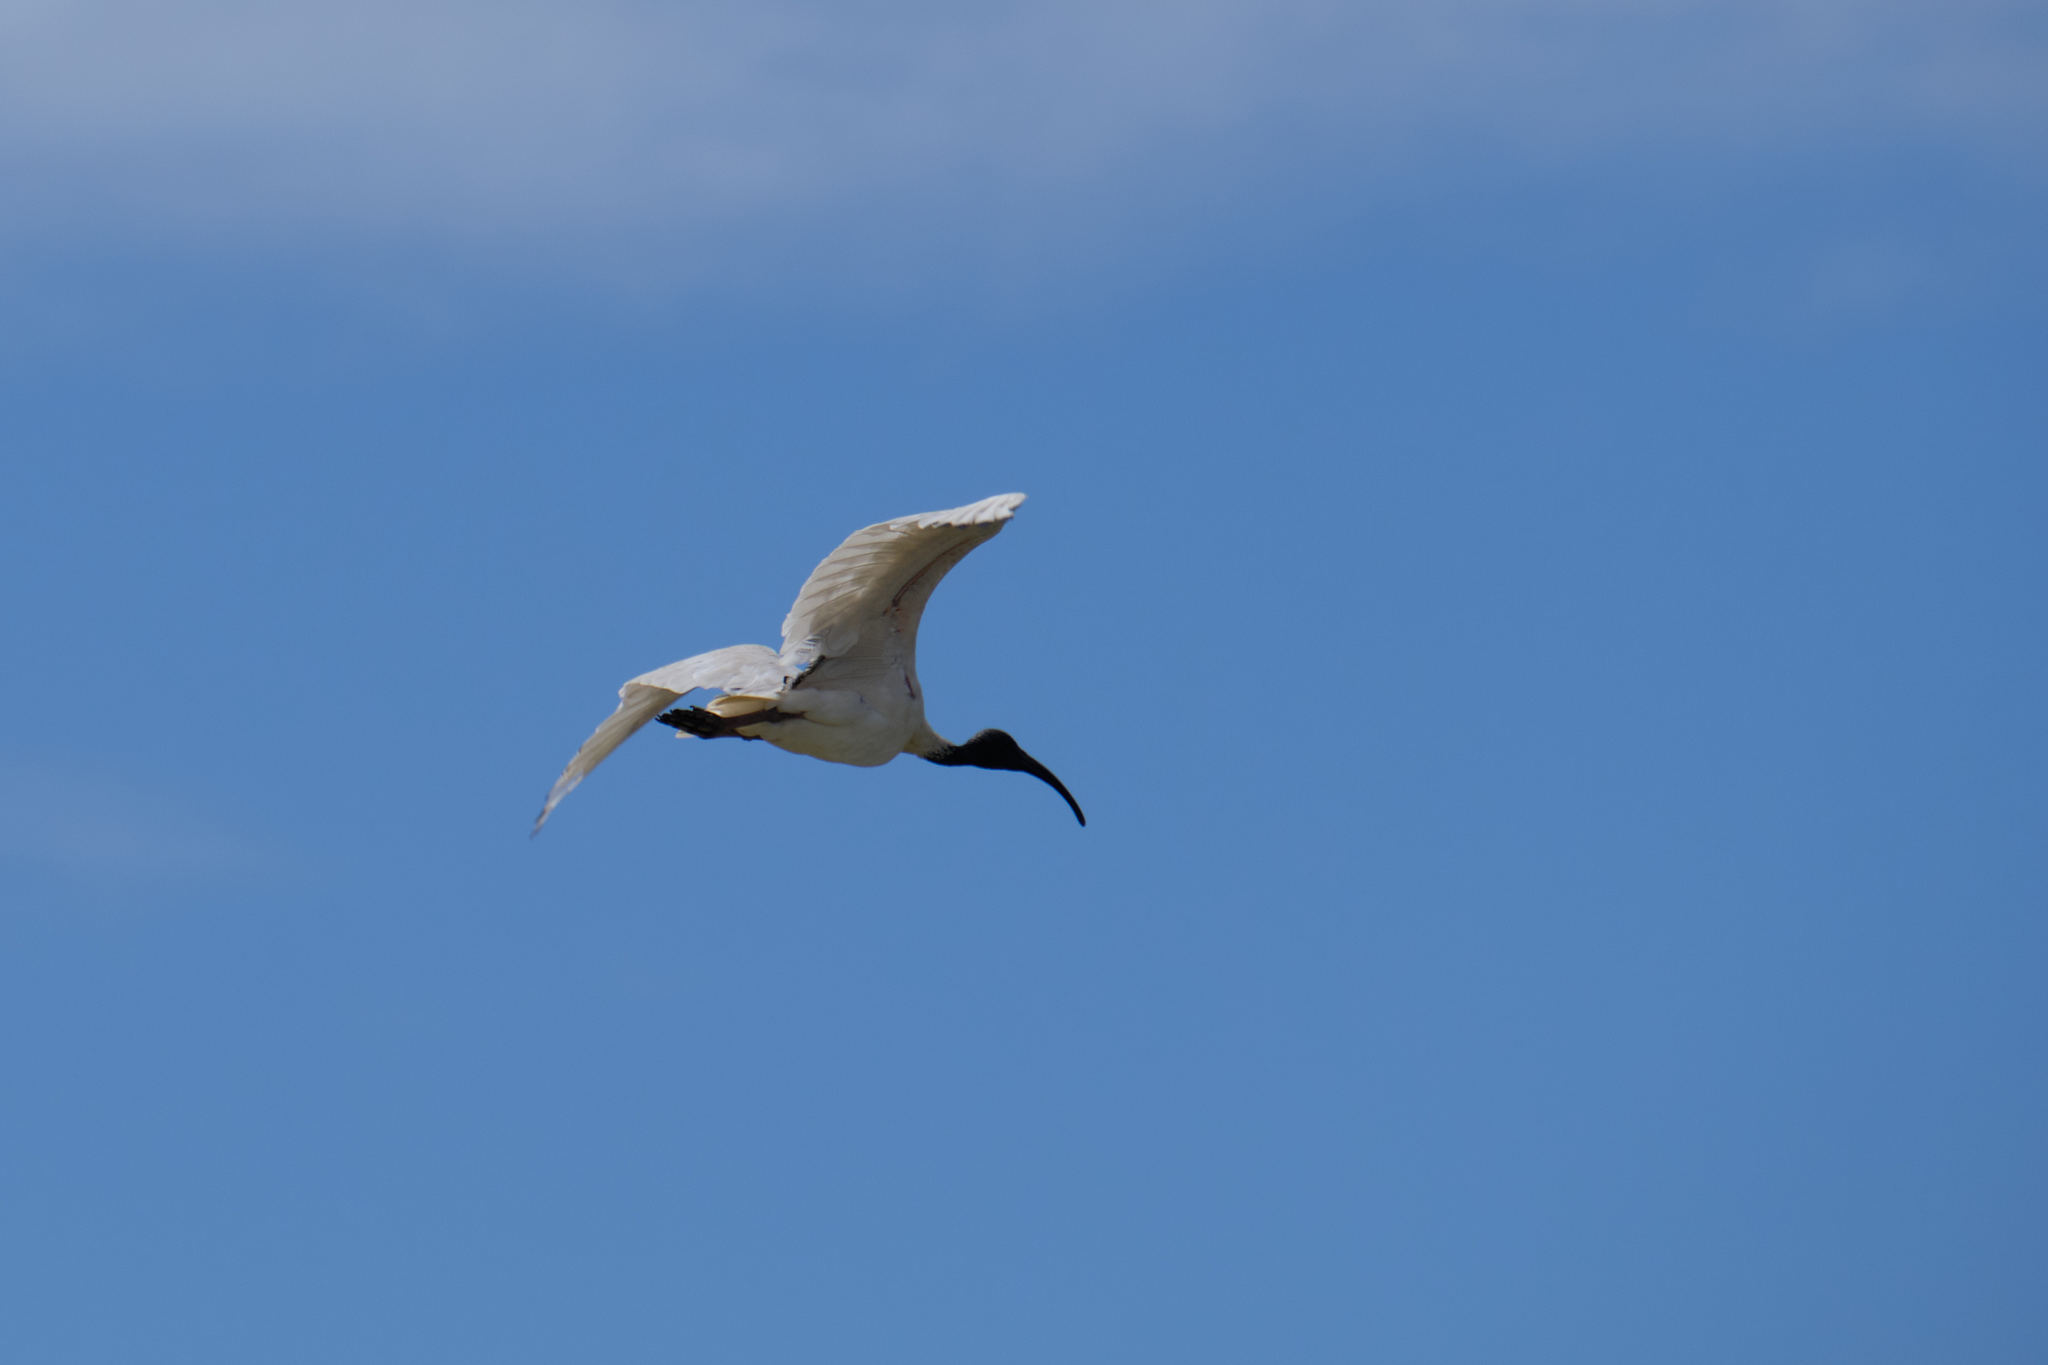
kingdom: Animalia
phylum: Chordata
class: Aves
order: Pelecaniformes
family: Threskiornithidae
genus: Threskiornis
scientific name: Threskiornis molucca
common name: Australian white ibis
